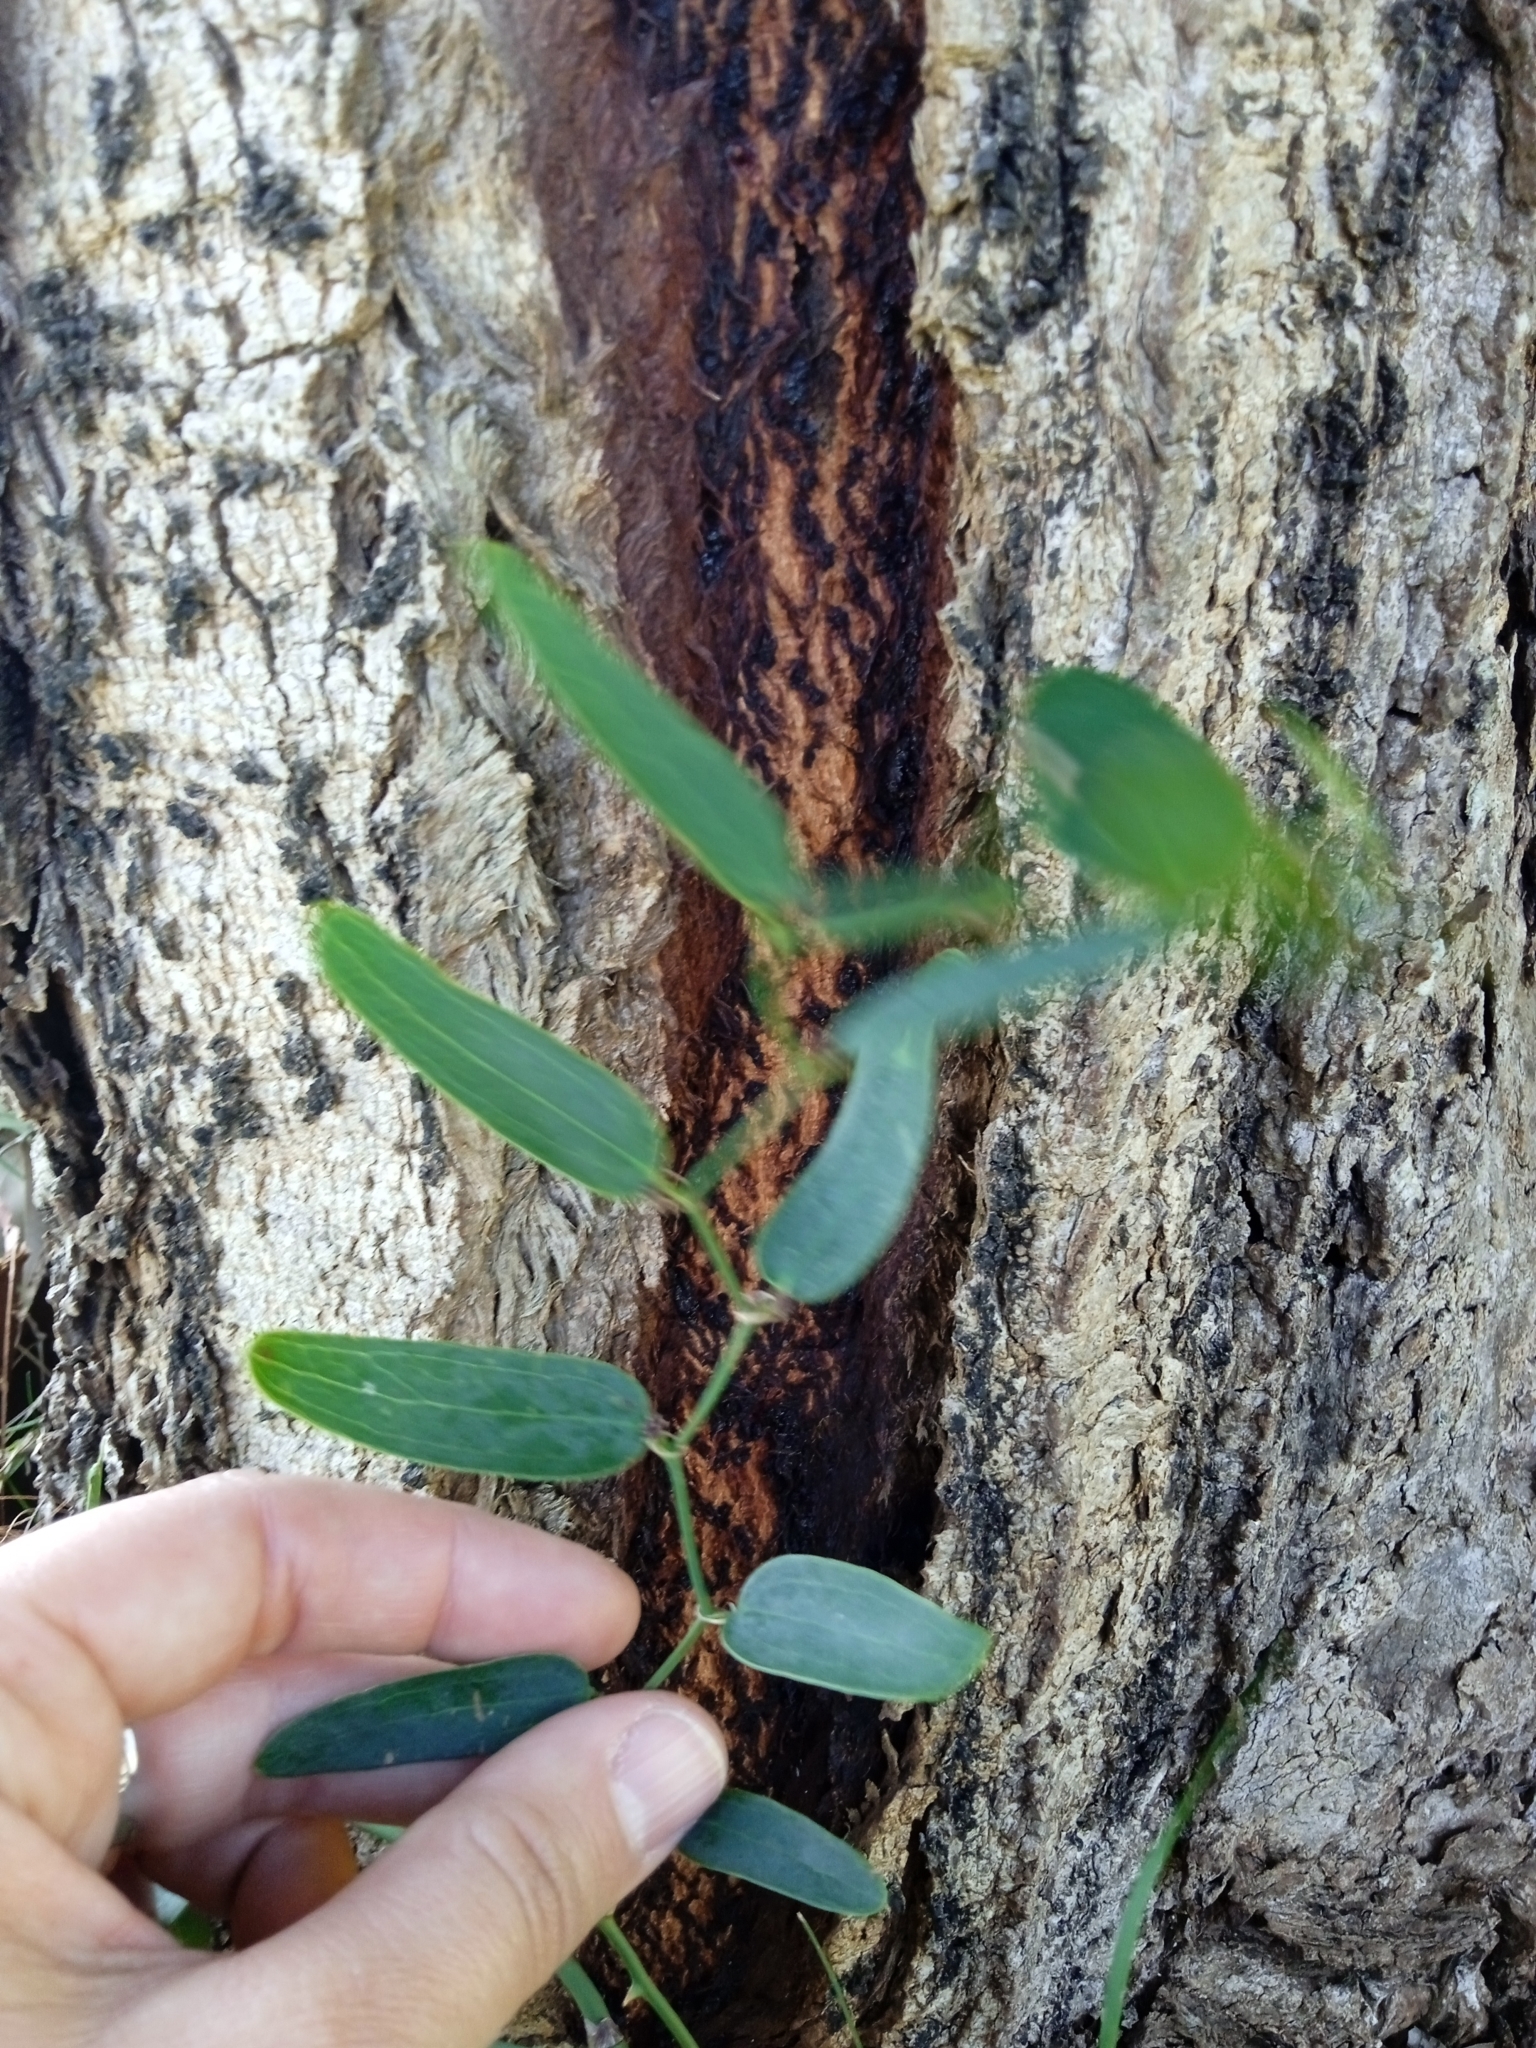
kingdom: Plantae
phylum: Tracheophyta
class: Liliopsida
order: Liliales
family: Smilacaceae
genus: Smilax
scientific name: Smilax campestris
